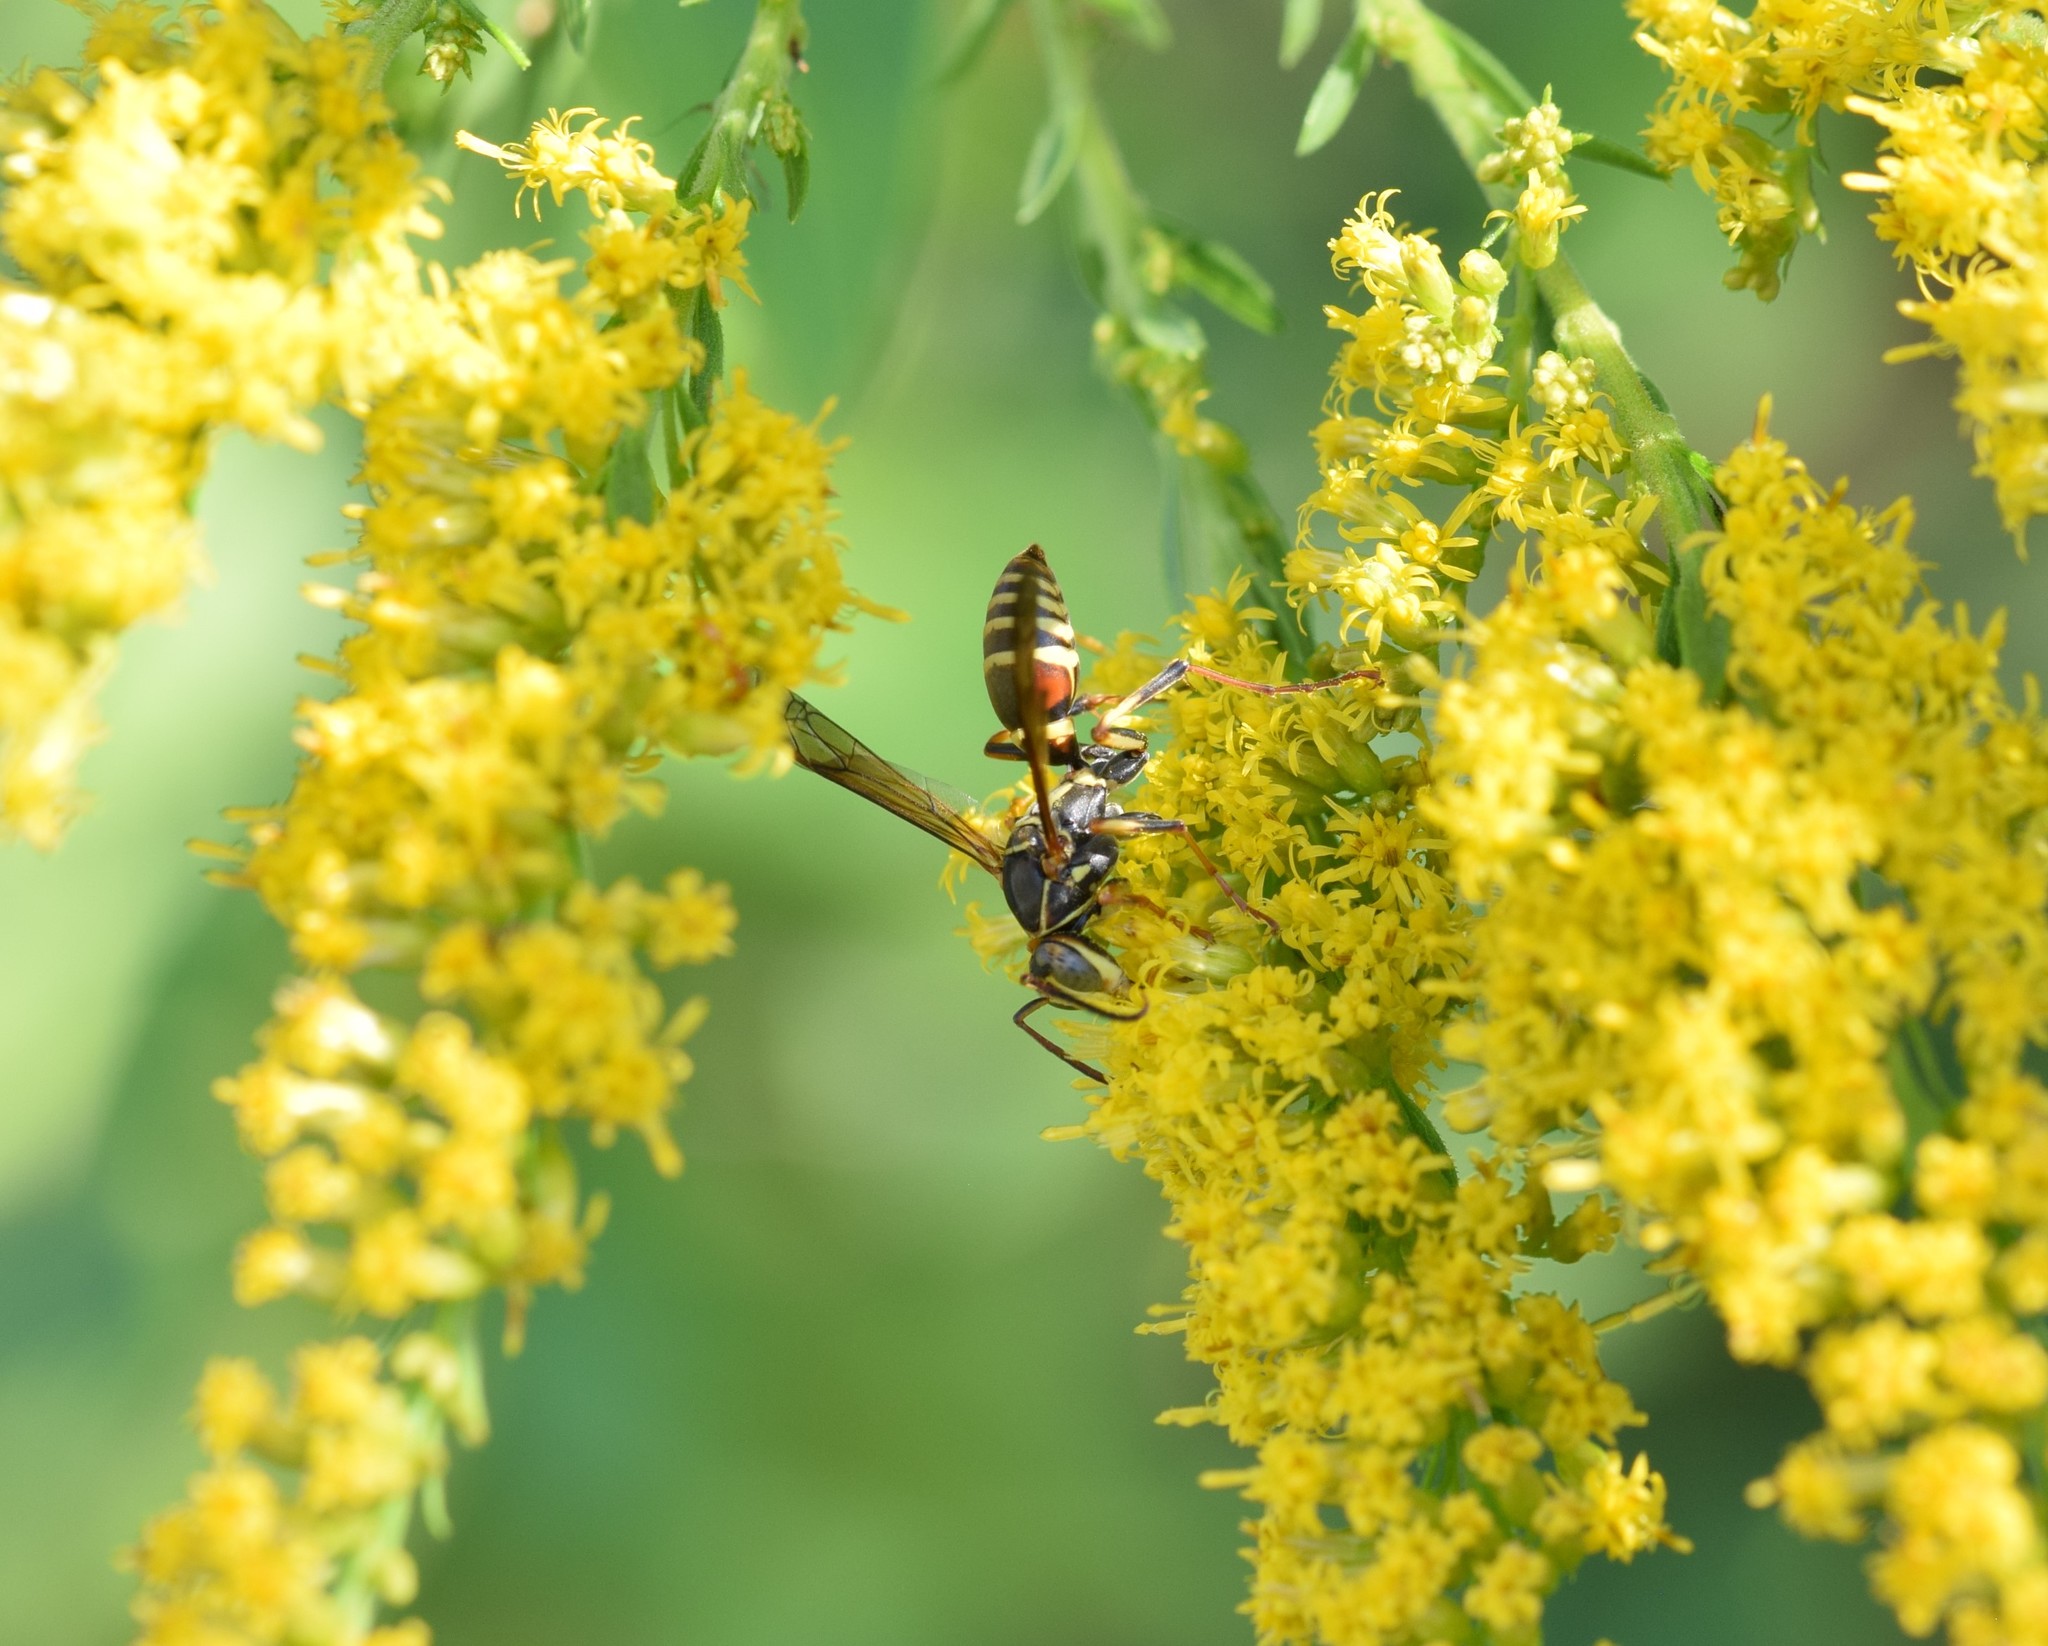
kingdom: Animalia
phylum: Arthropoda
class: Insecta
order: Hymenoptera
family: Eumenidae
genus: Polistes
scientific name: Polistes dorsalis
